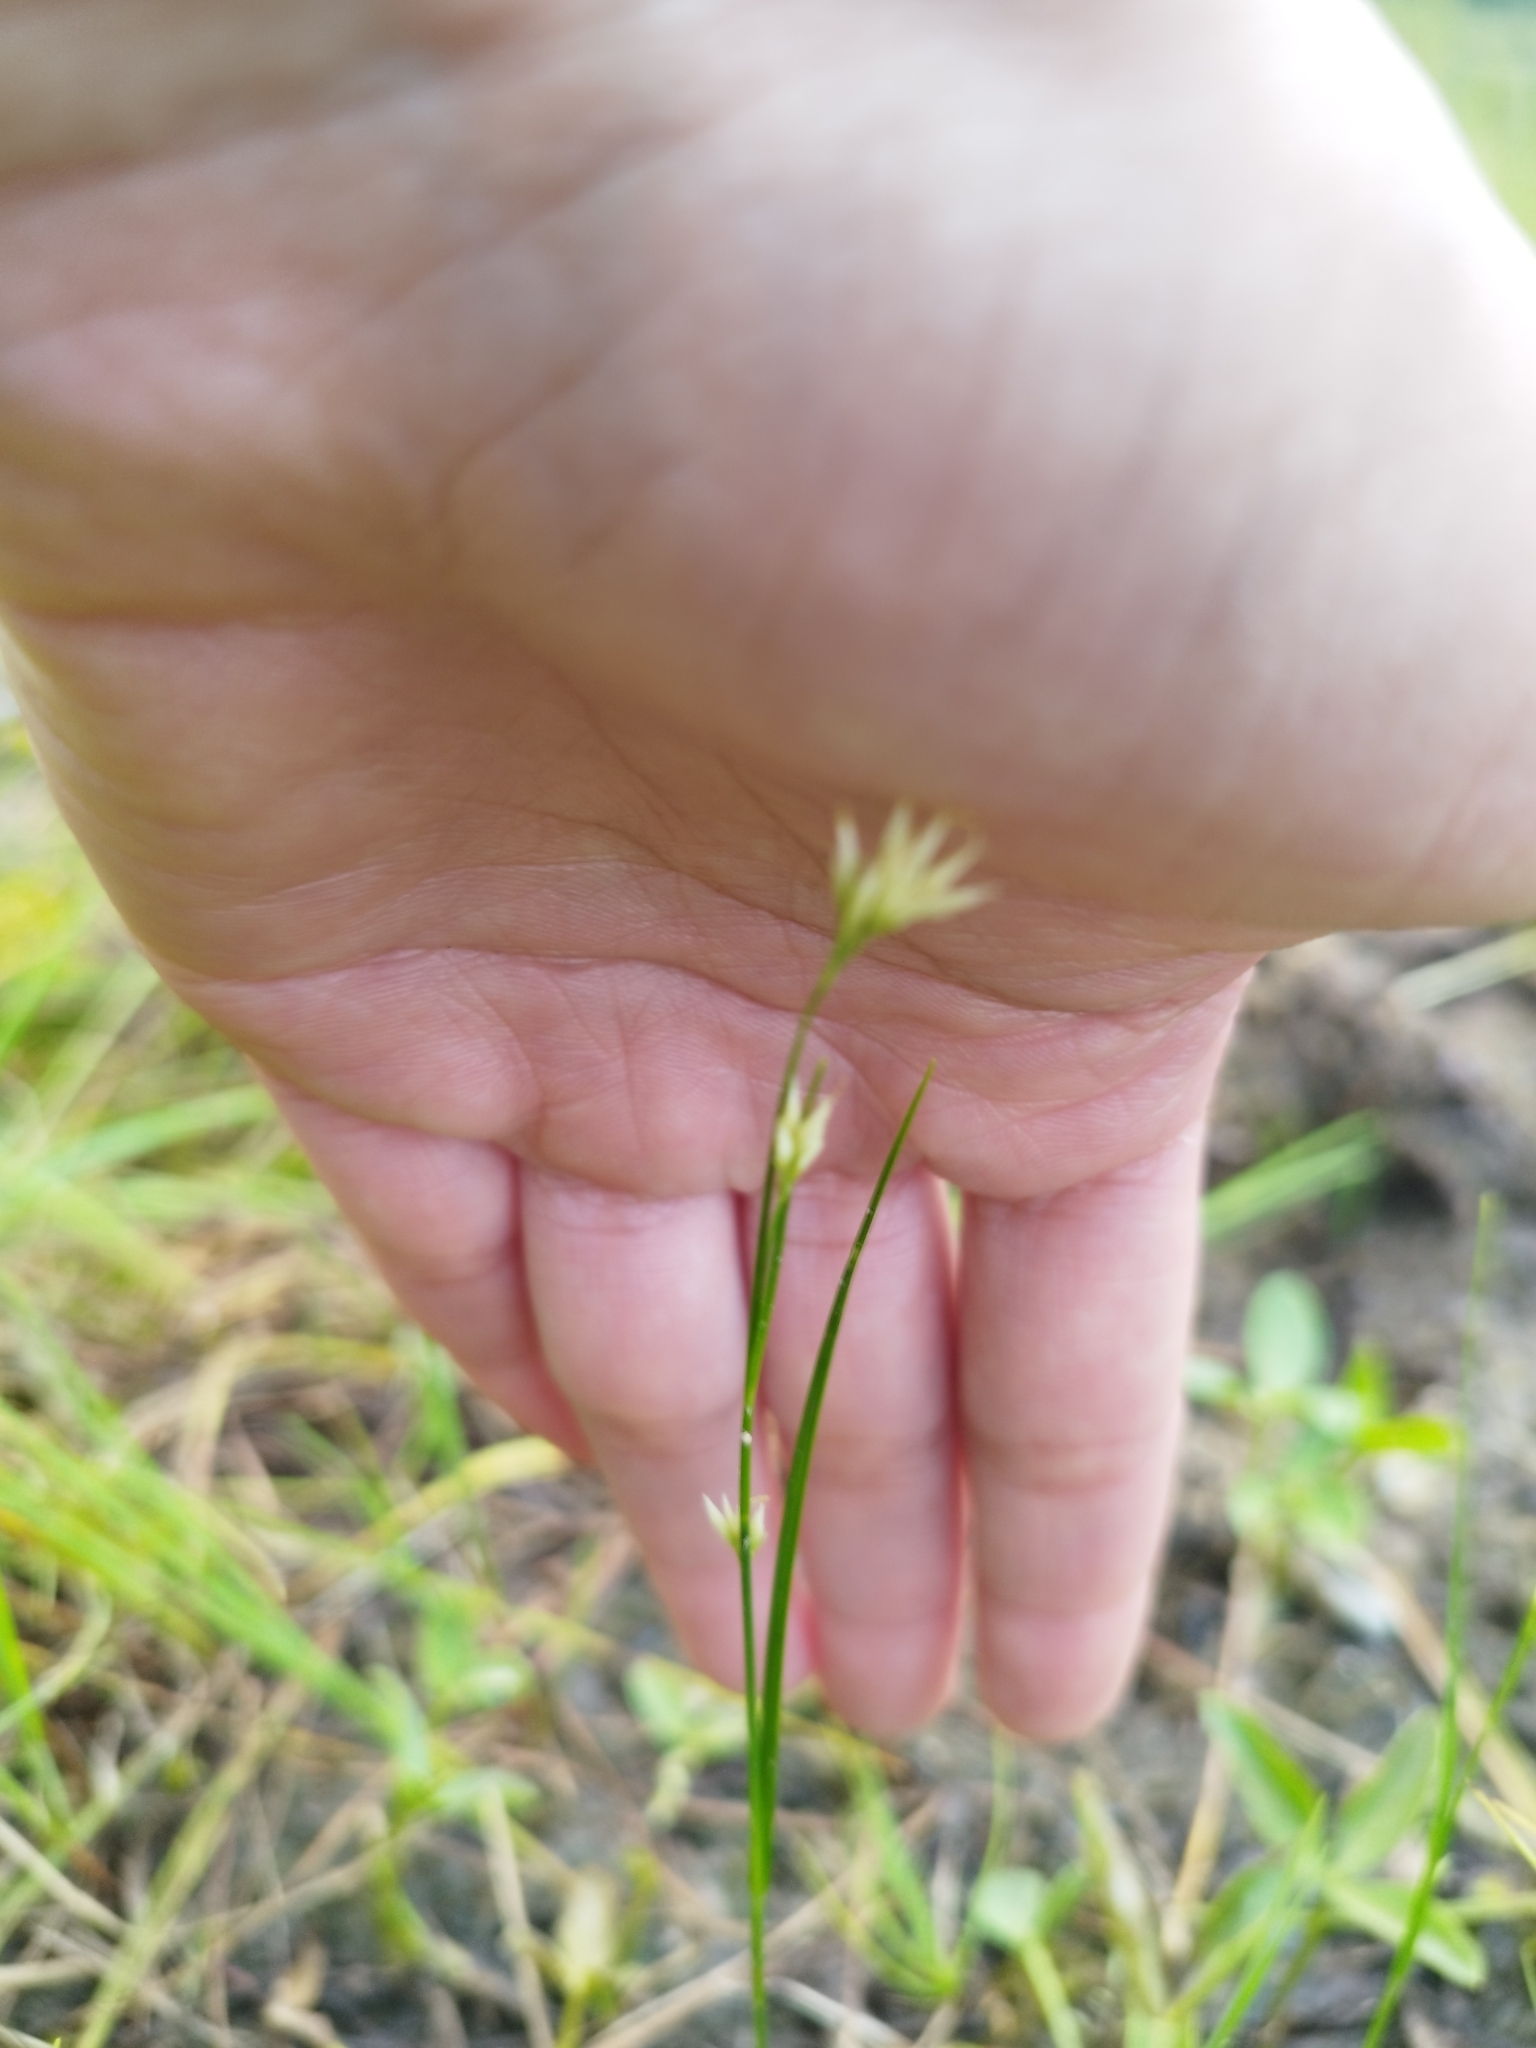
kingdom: Plantae
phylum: Tracheophyta
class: Liliopsida
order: Poales
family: Cyperaceae
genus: Rhynchospora
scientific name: Rhynchospora alba
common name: White beak-sedge
